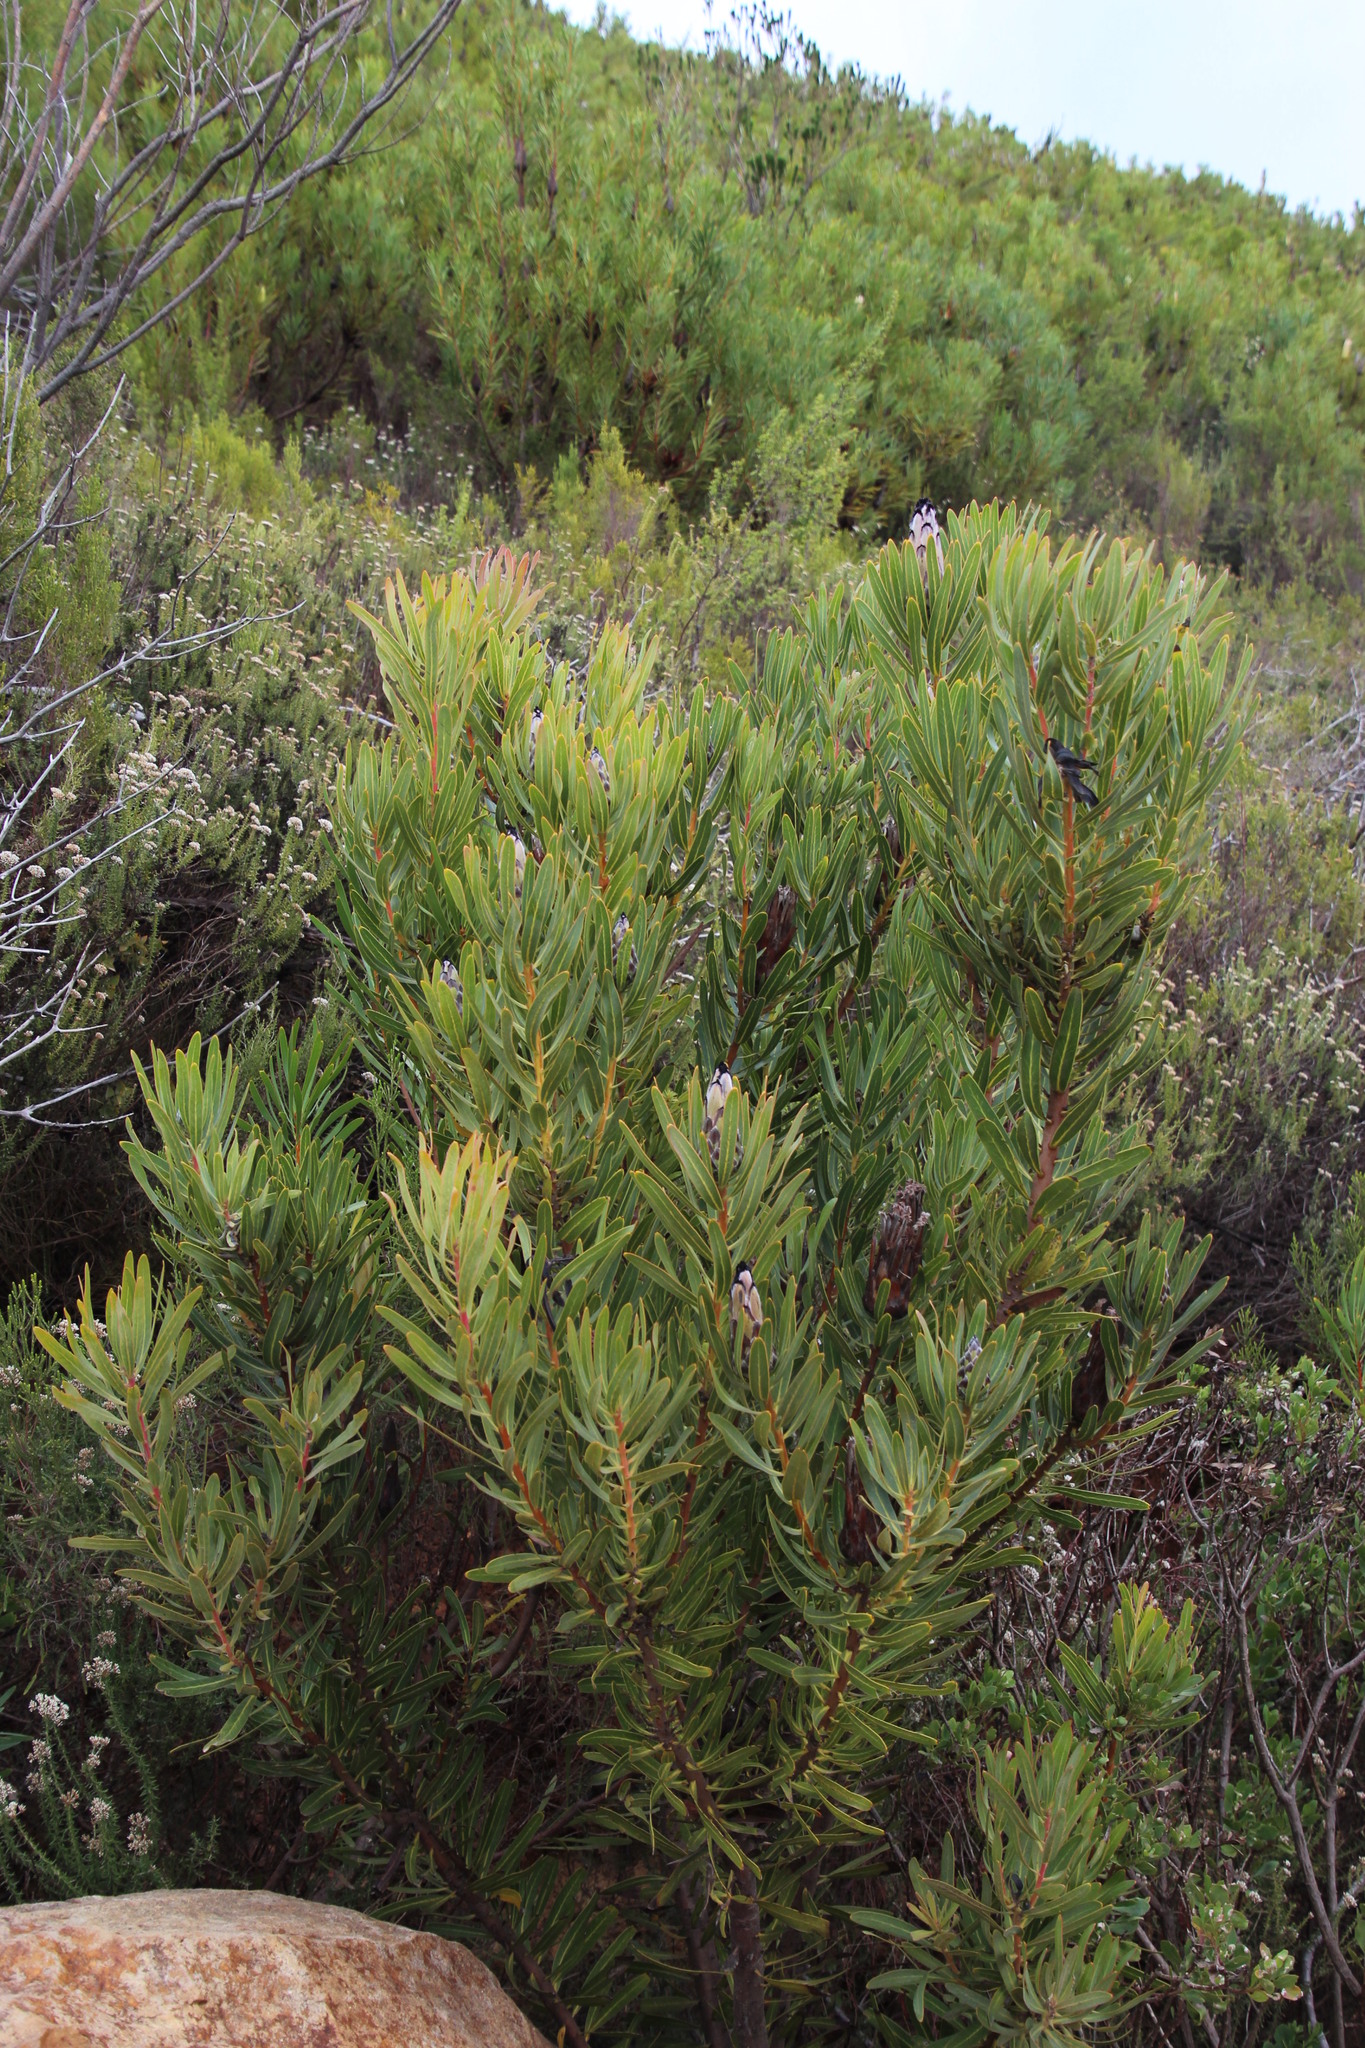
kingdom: Plantae
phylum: Tracheophyta
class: Magnoliopsida
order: Proteales
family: Proteaceae
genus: Protea
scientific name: Protea
